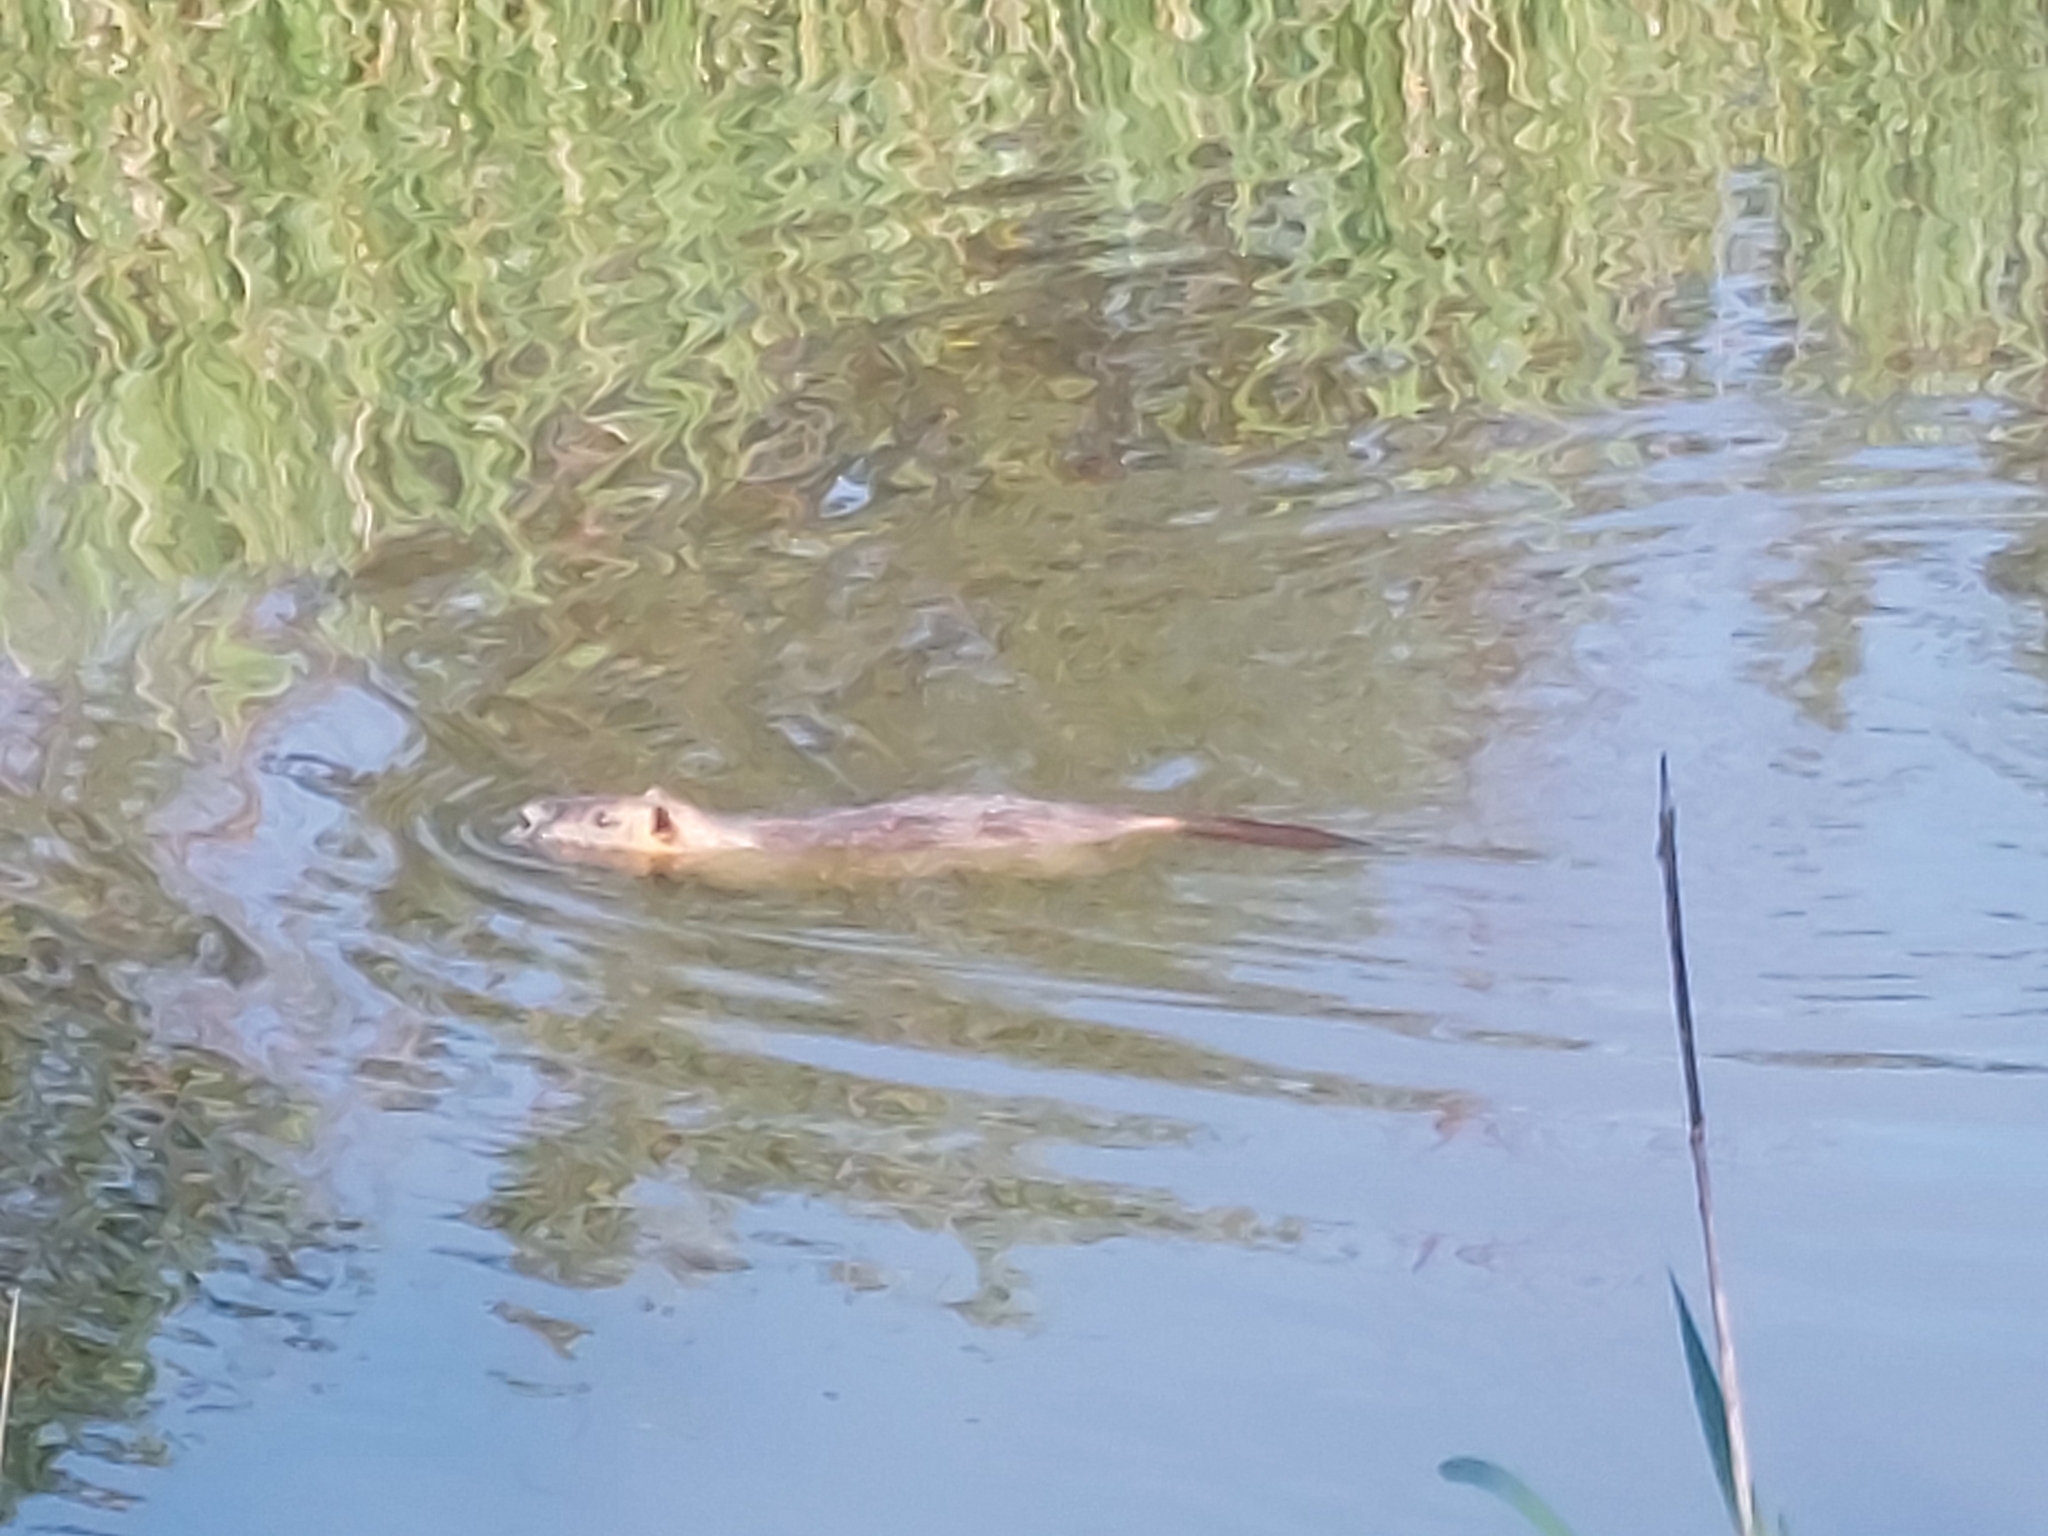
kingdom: Animalia
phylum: Chordata
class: Mammalia
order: Rodentia
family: Myocastoridae
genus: Myocastor
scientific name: Myocastor coypus
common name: Coypu
